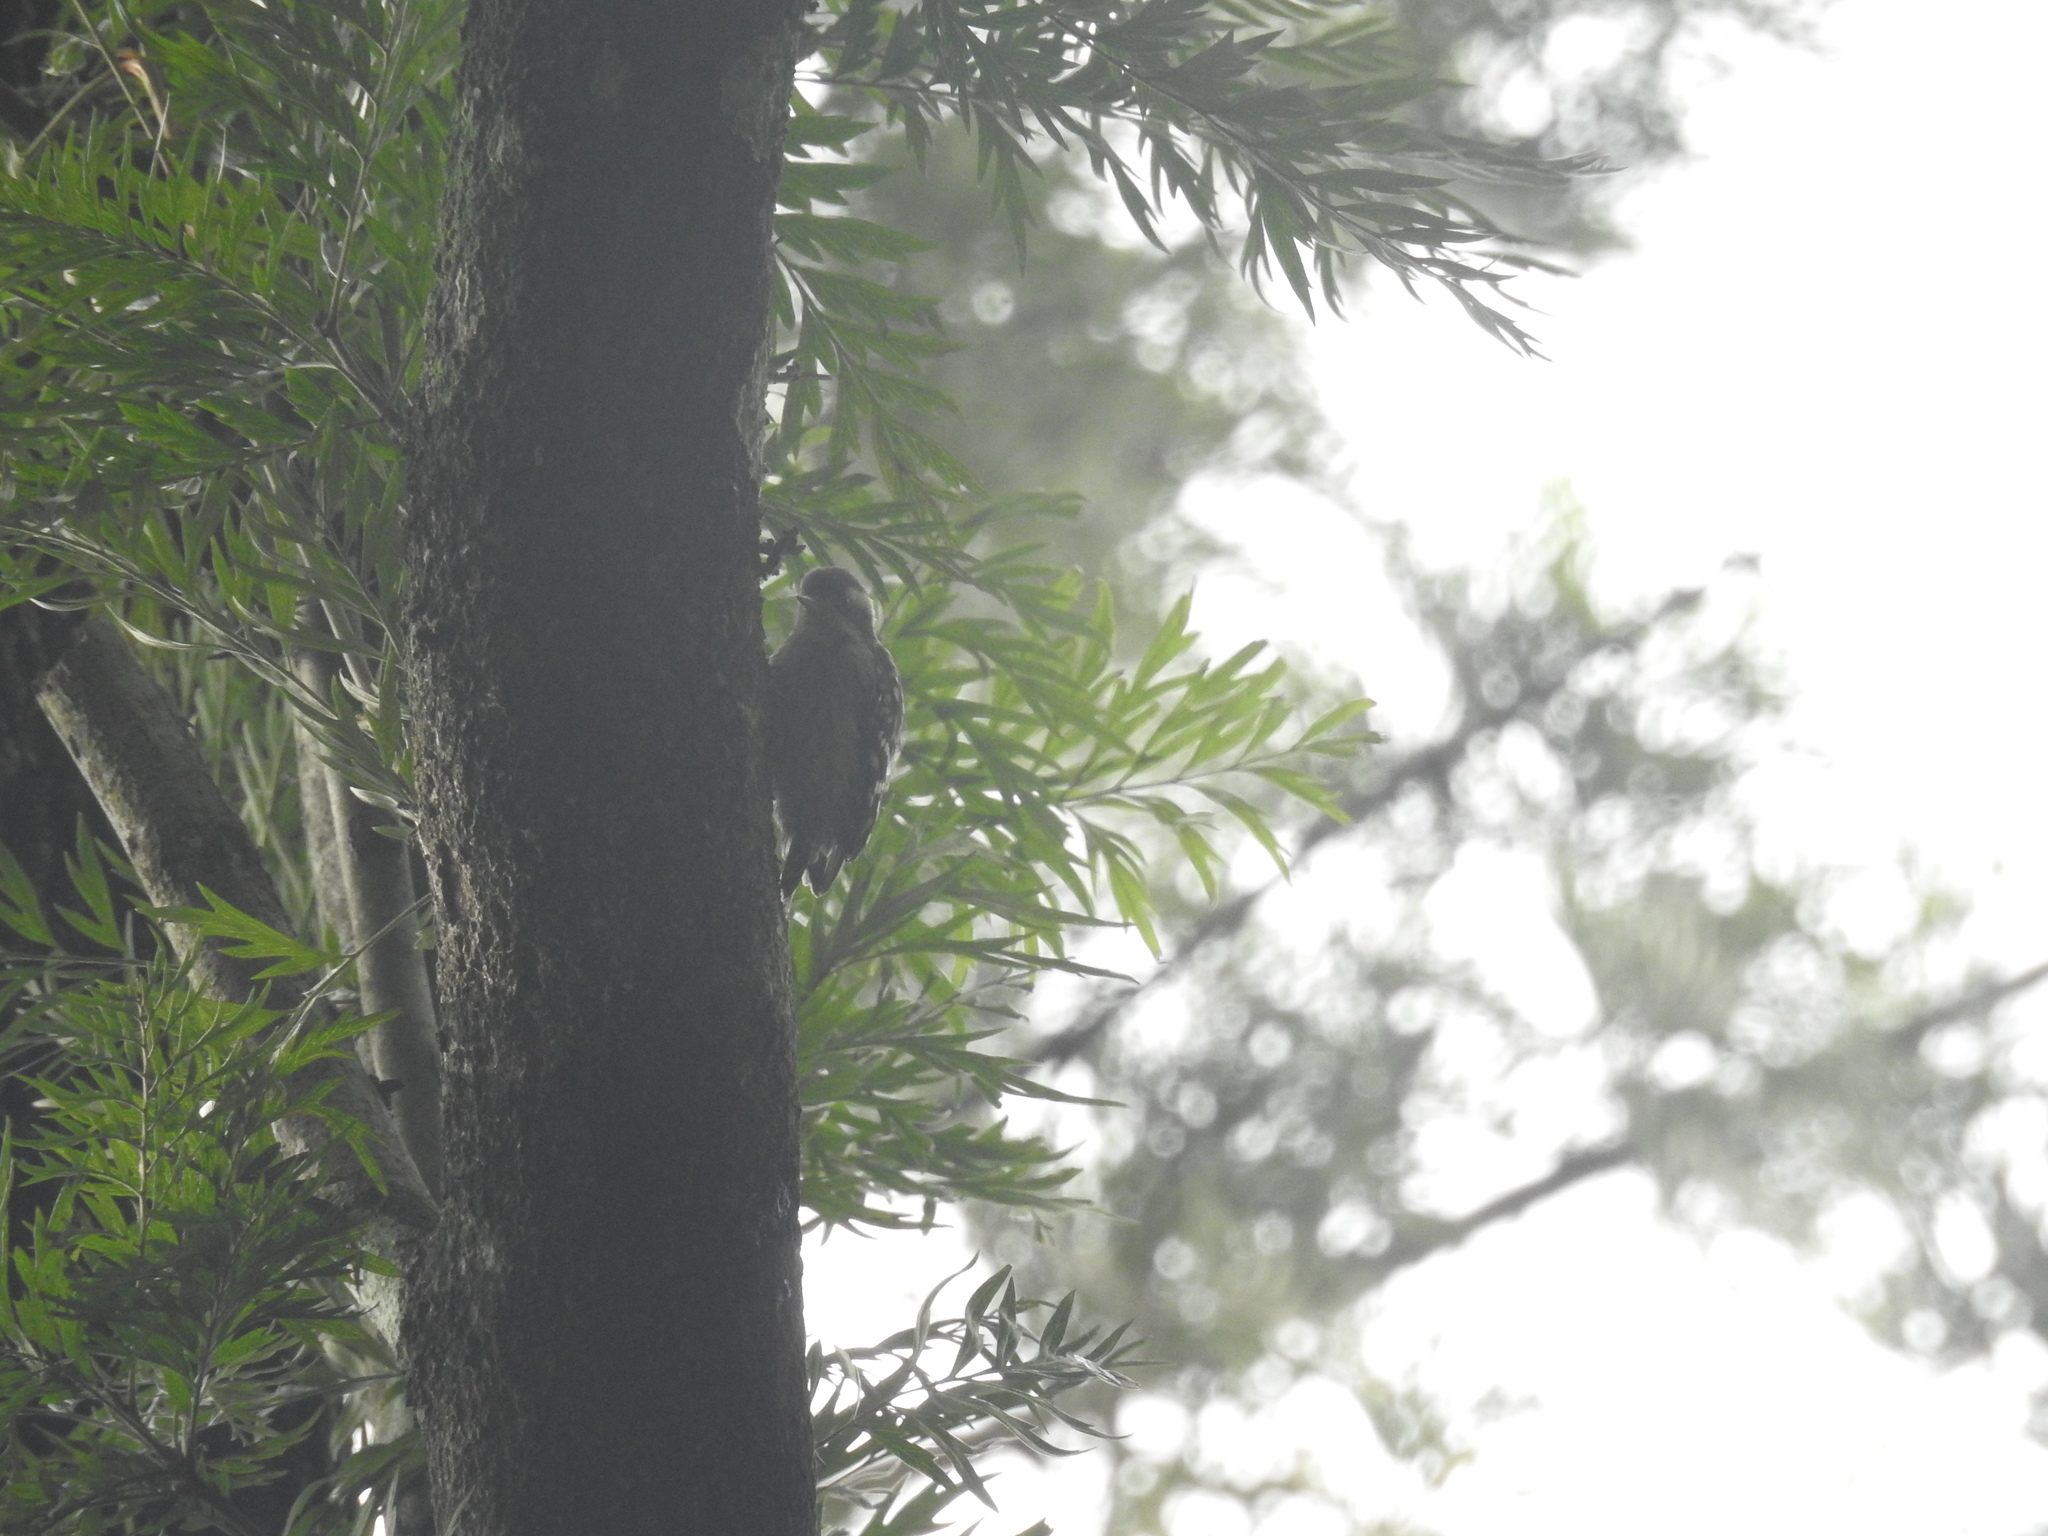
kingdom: Animalia
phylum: Chordata
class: Aves
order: Piciformes
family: Picidae
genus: Yungipicus
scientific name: Yungipicus nanus
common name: Brown-capped pygmy woodpecker
